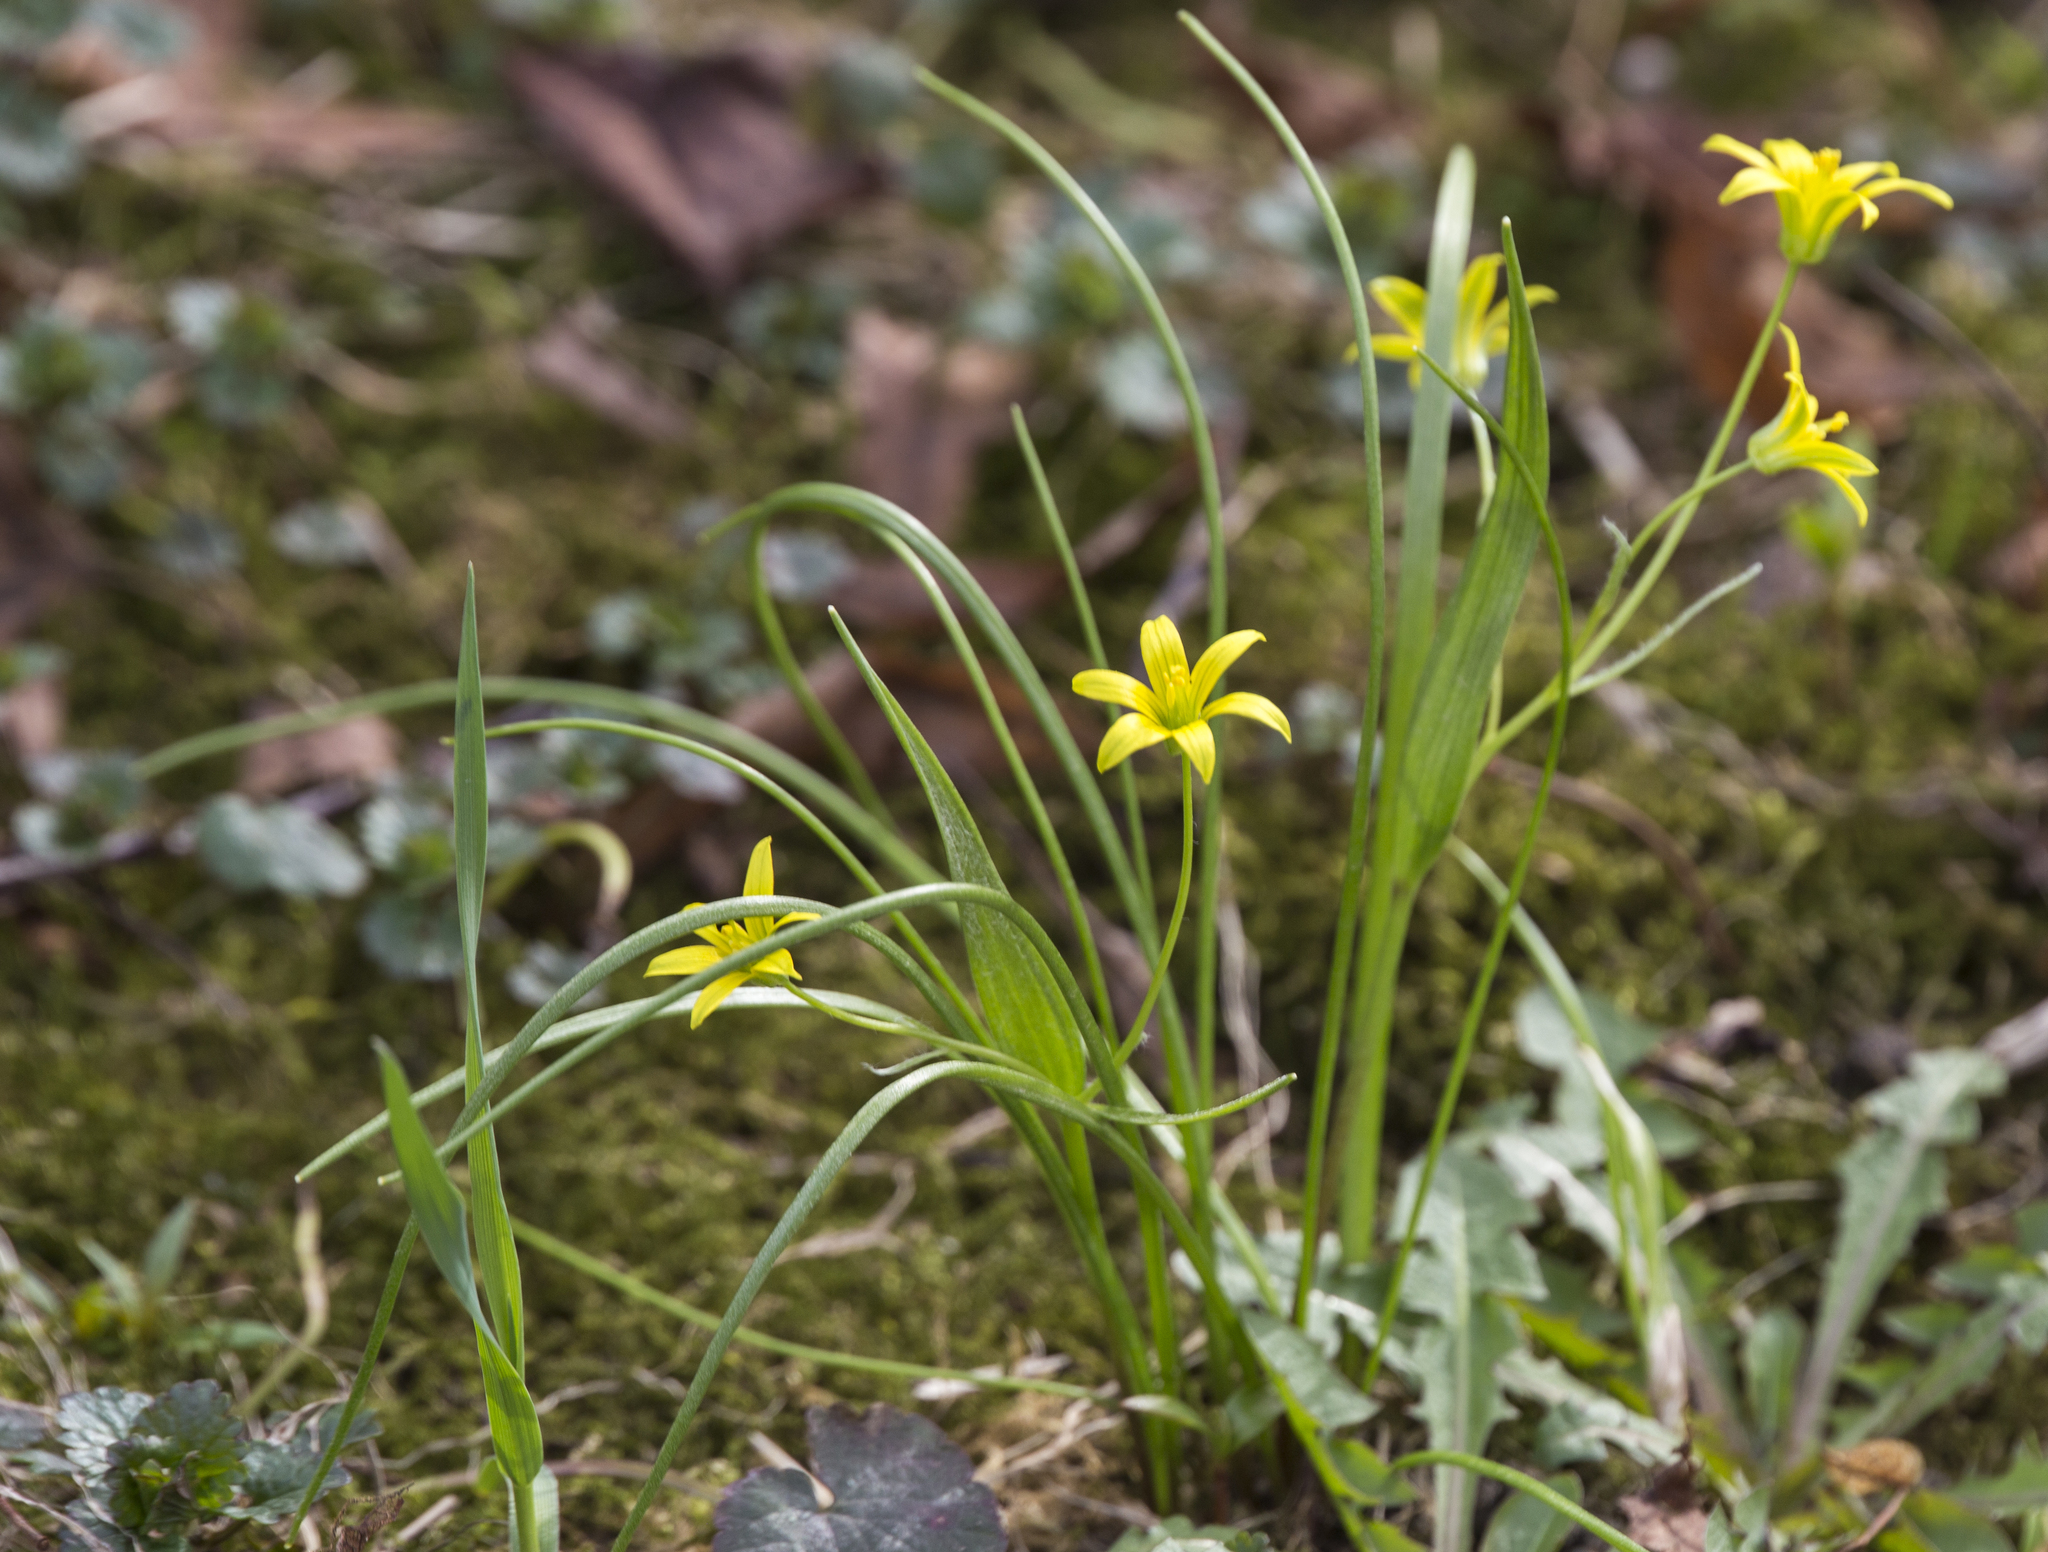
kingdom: Plantae
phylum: Tracheophyta
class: Liliopsida
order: Liliales
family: Liliaceae
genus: Gagea
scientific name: Gagea minima
